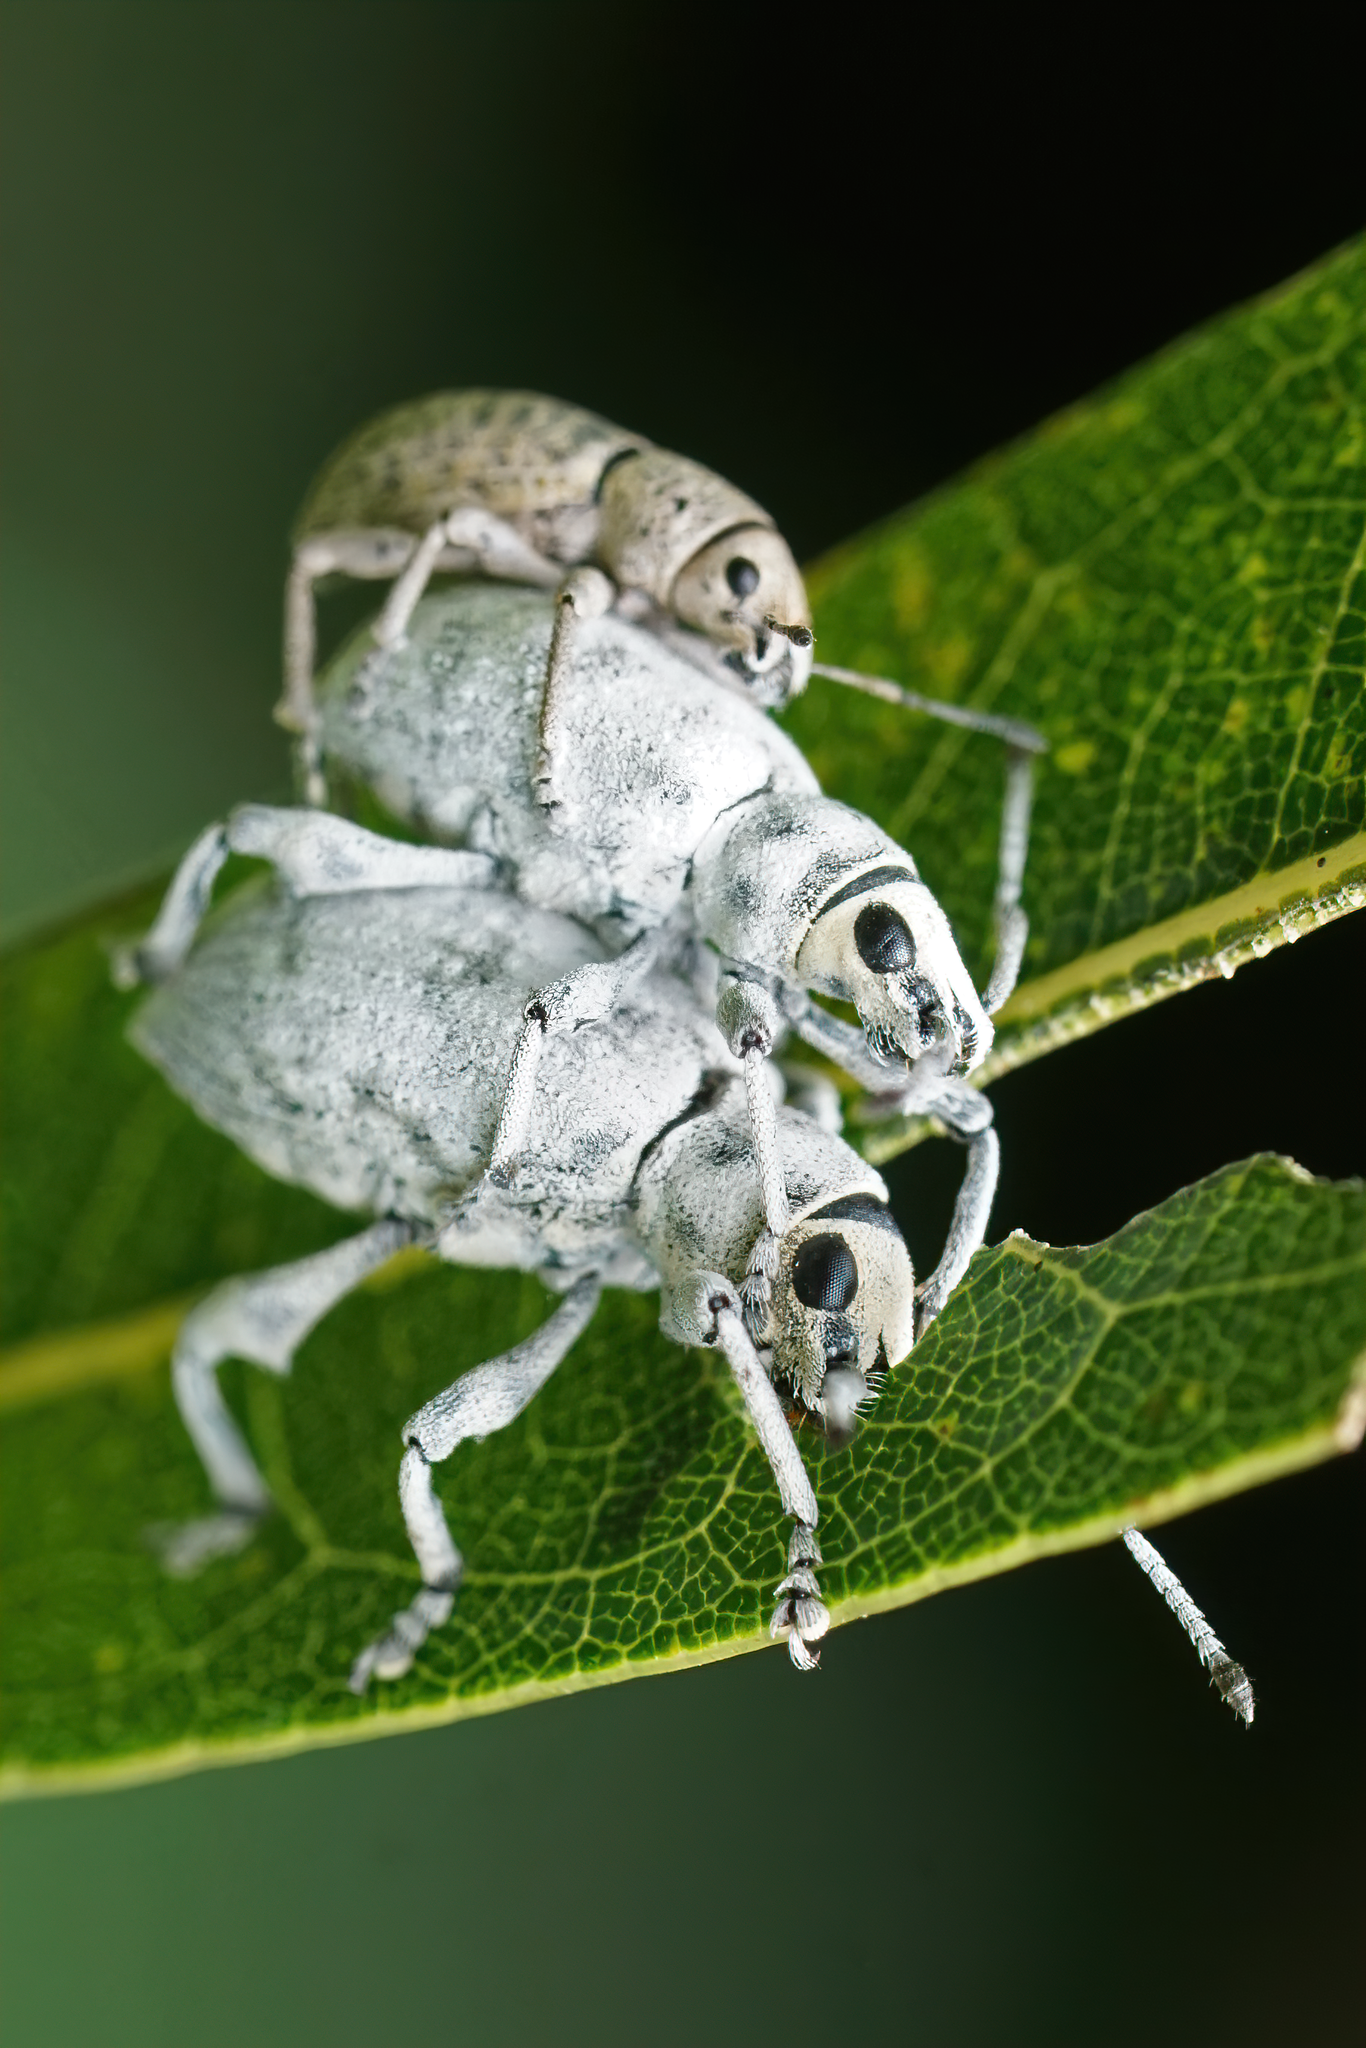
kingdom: Animalia
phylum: Arthropoda
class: Insecta
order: Coleoptera
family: Curculionidae
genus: Myllocerus
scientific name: Myllocerus undecimpustulatus
